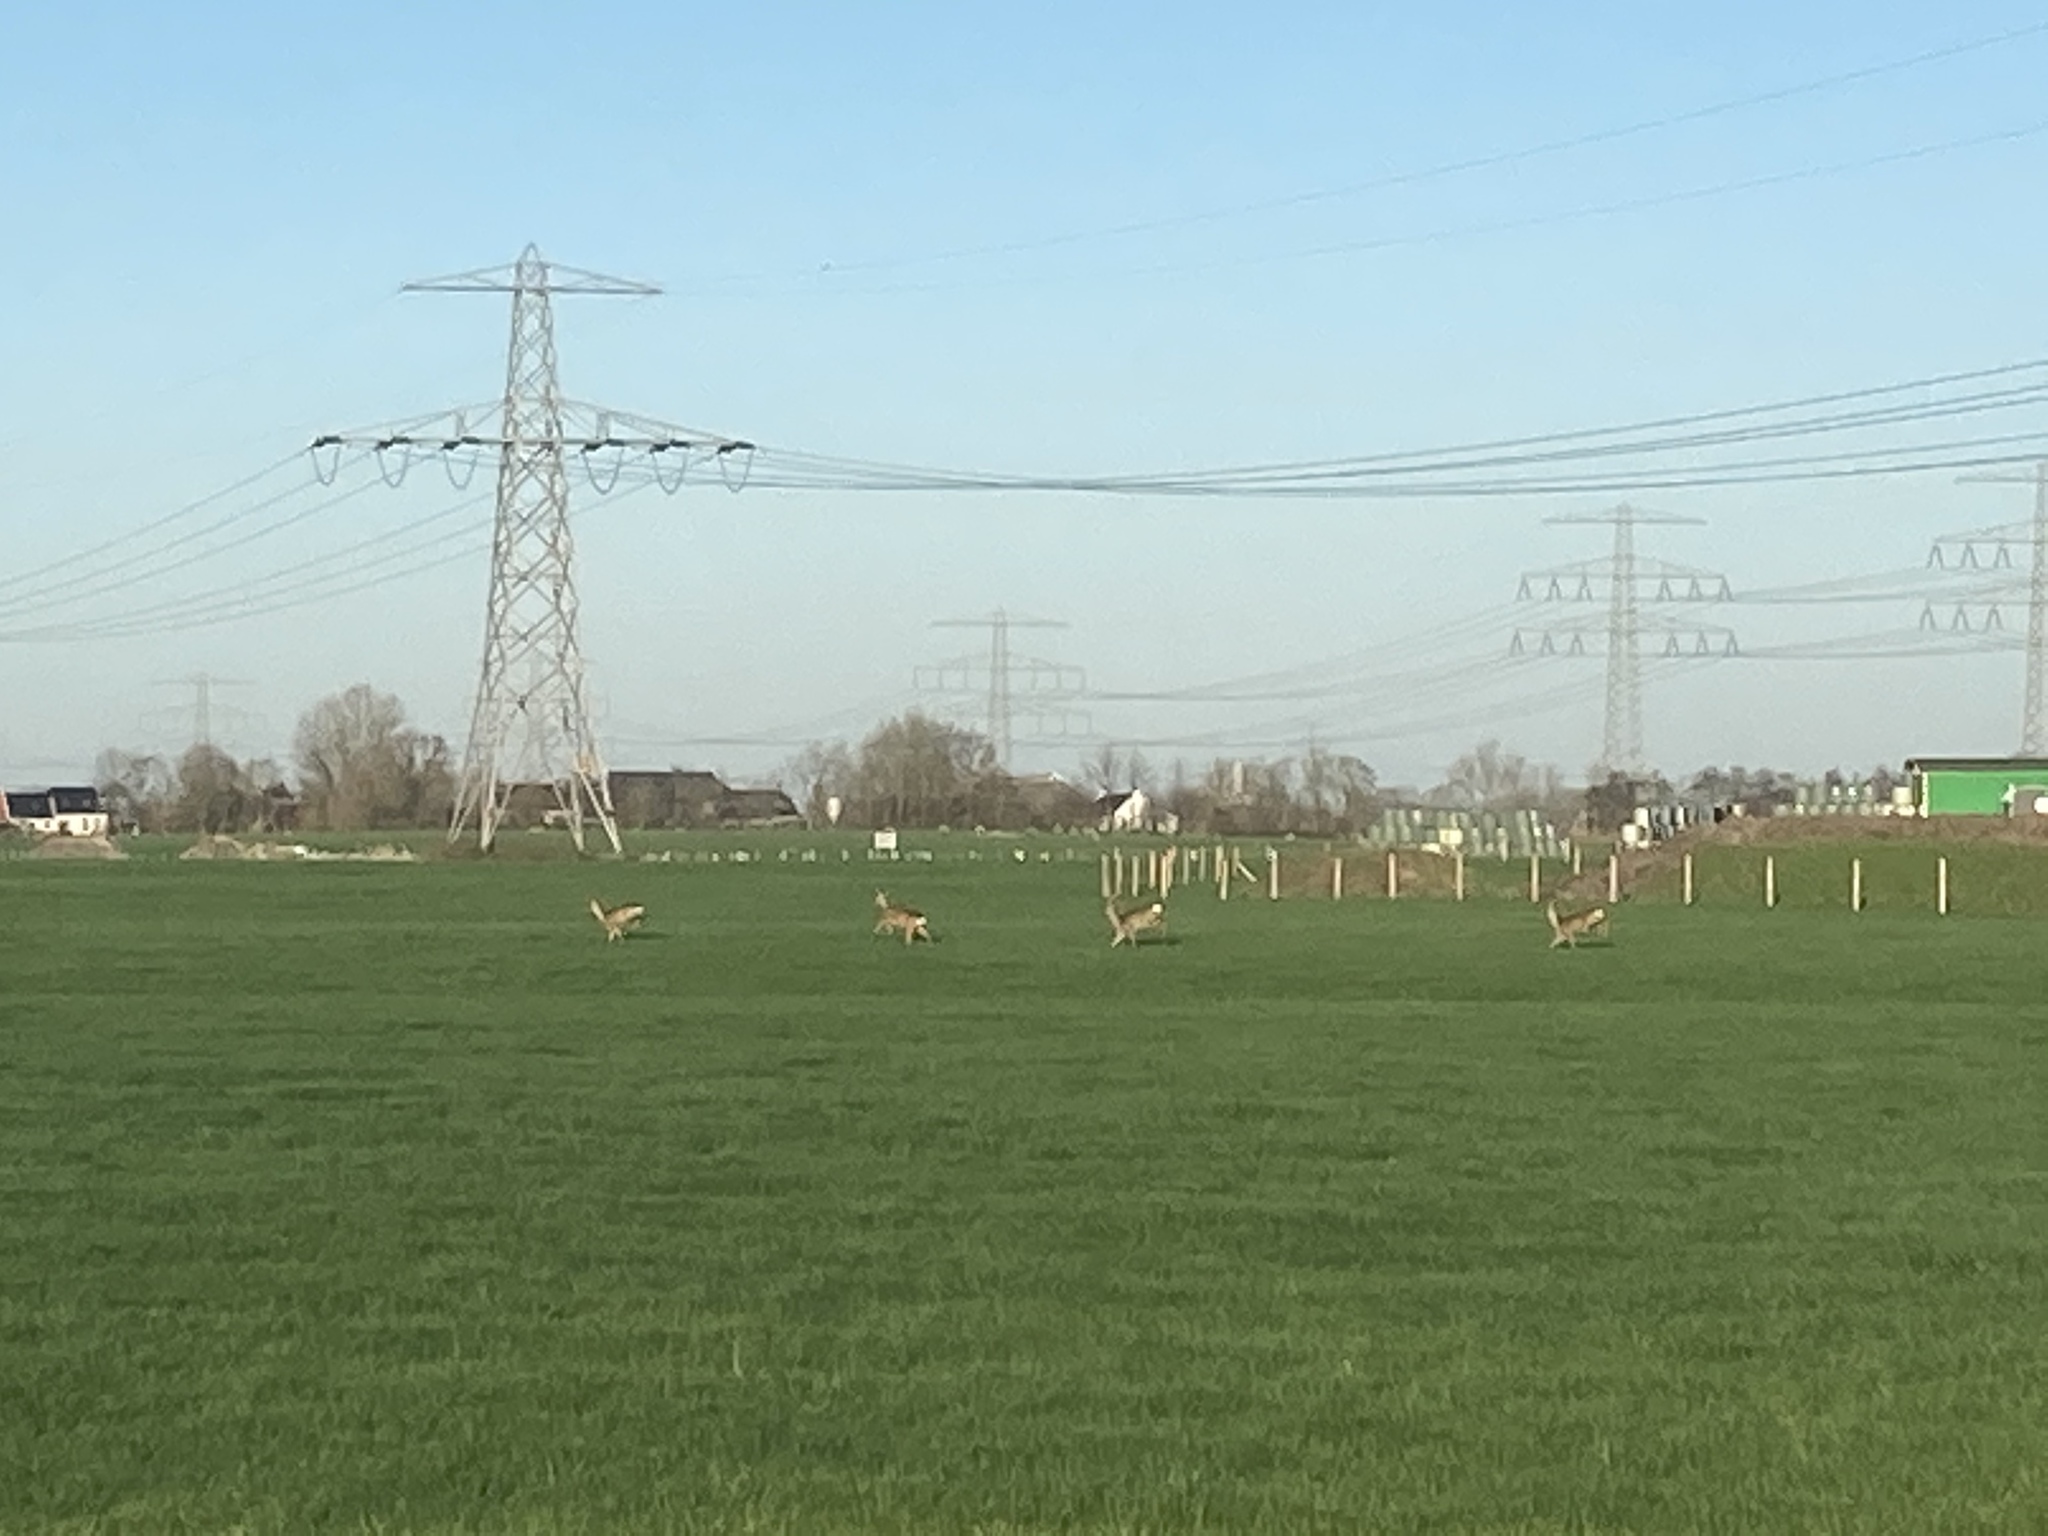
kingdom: Animalia
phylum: Chordata
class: Mammalia
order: Artiodactyla
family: Cervidae
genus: Capreolus
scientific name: Capreolus capreolus
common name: Western roe deer
